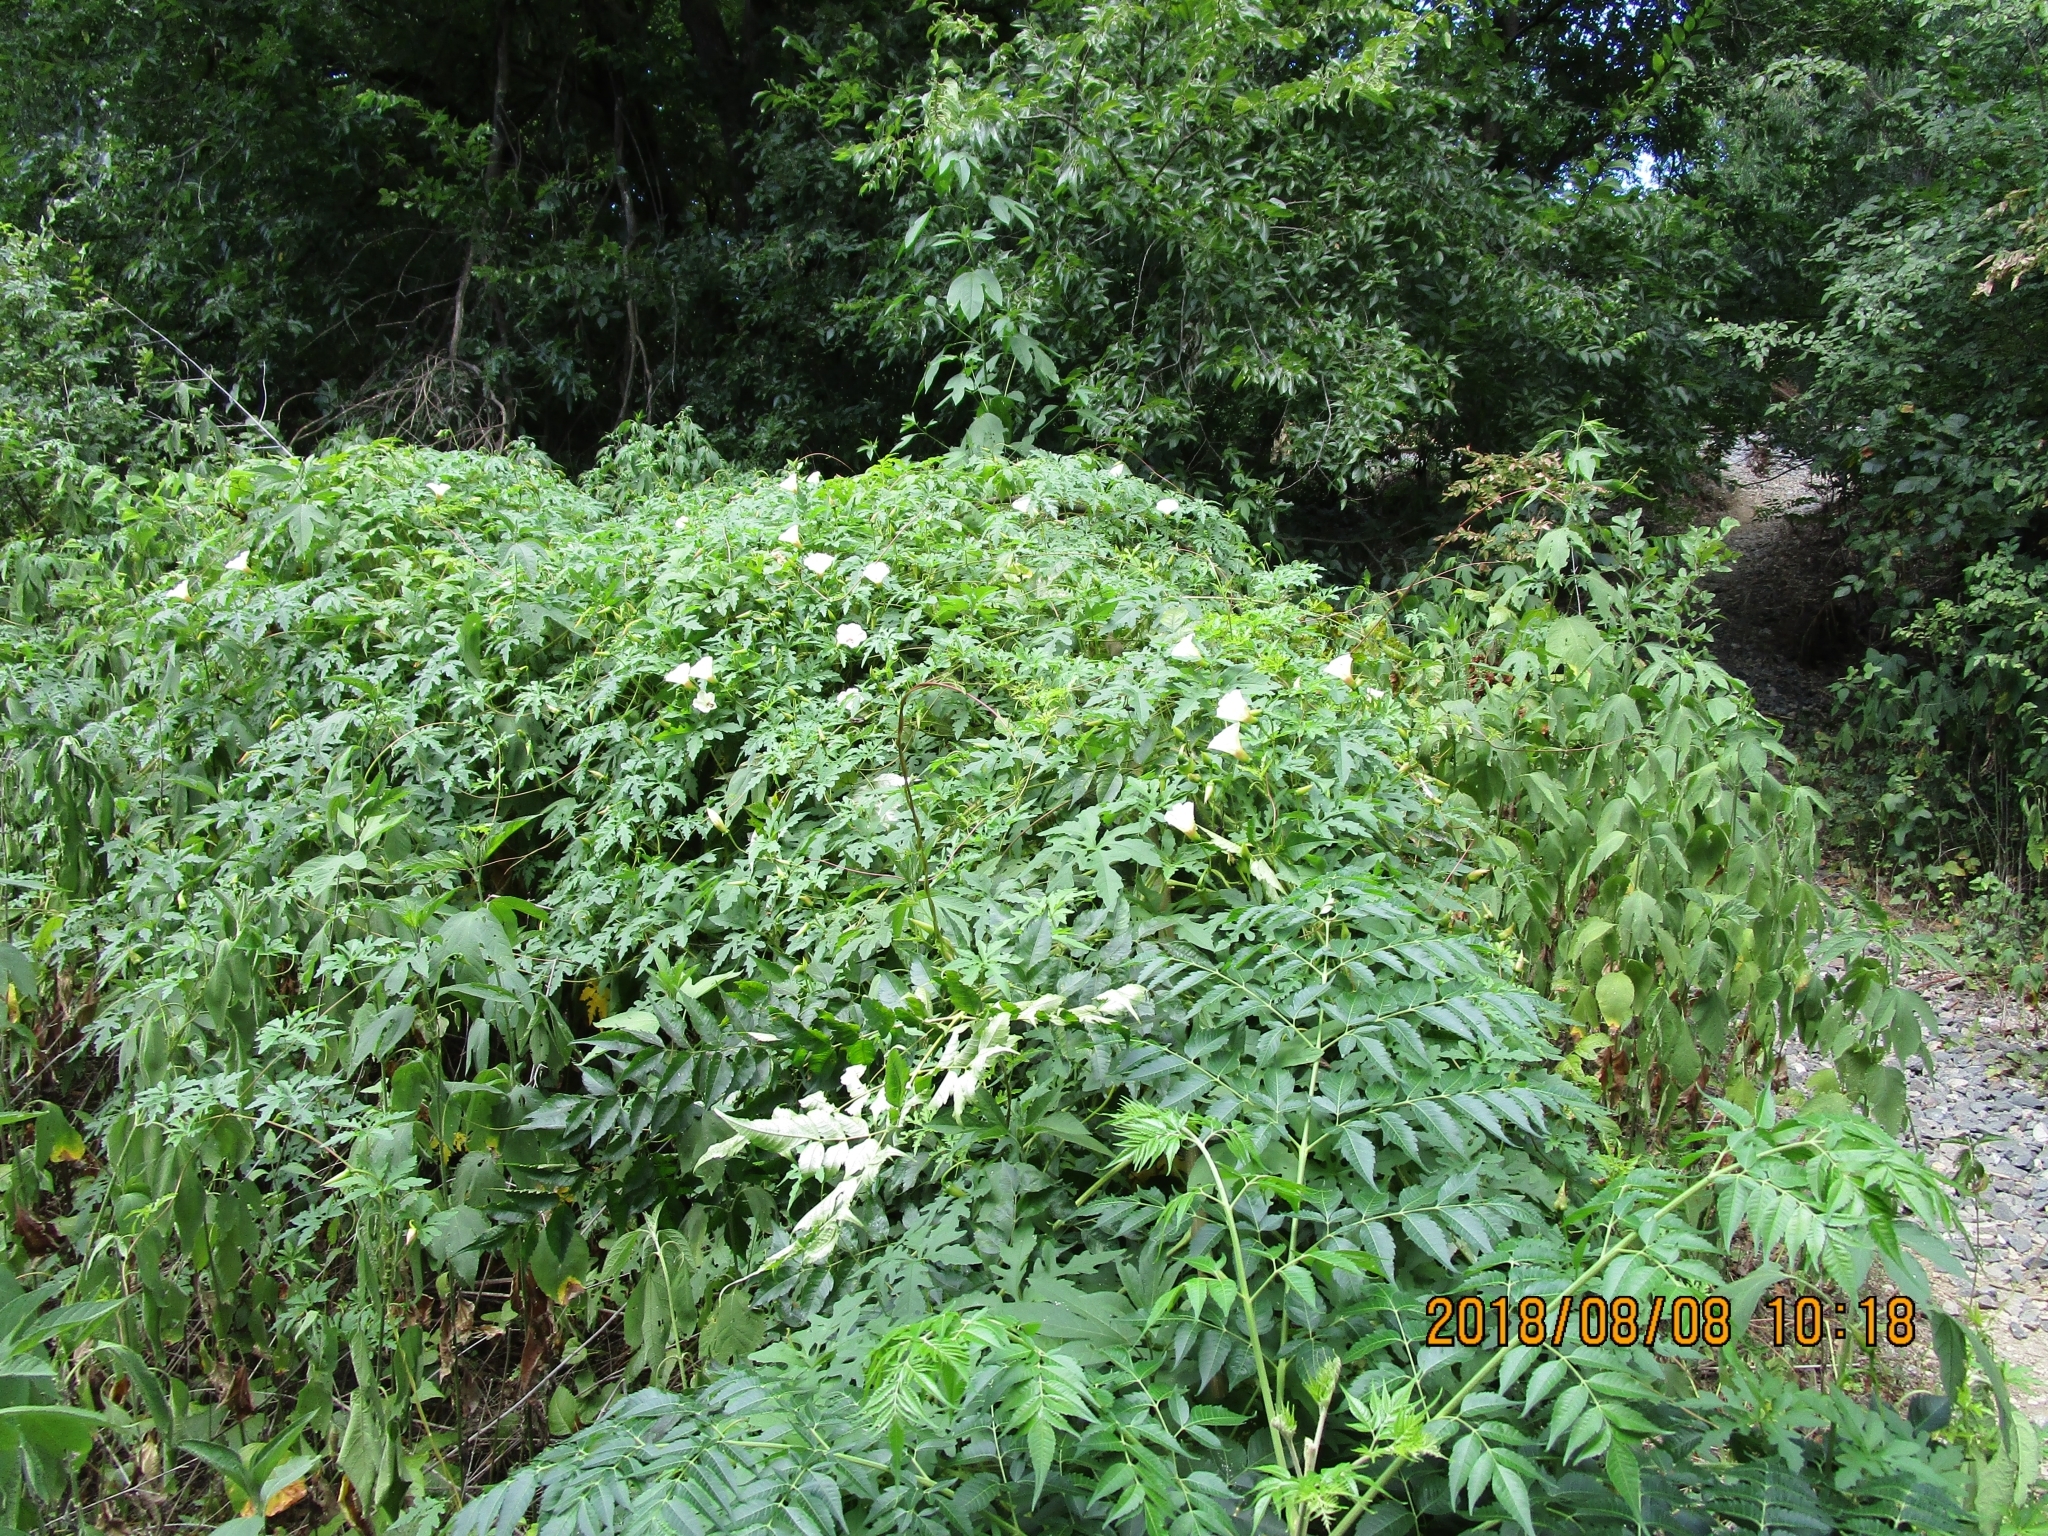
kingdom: Plantae
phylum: Tracheophyta
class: Magnoliopsida
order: Solanales
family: Convolvulaceae
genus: Distimake
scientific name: Distimake dissectus
